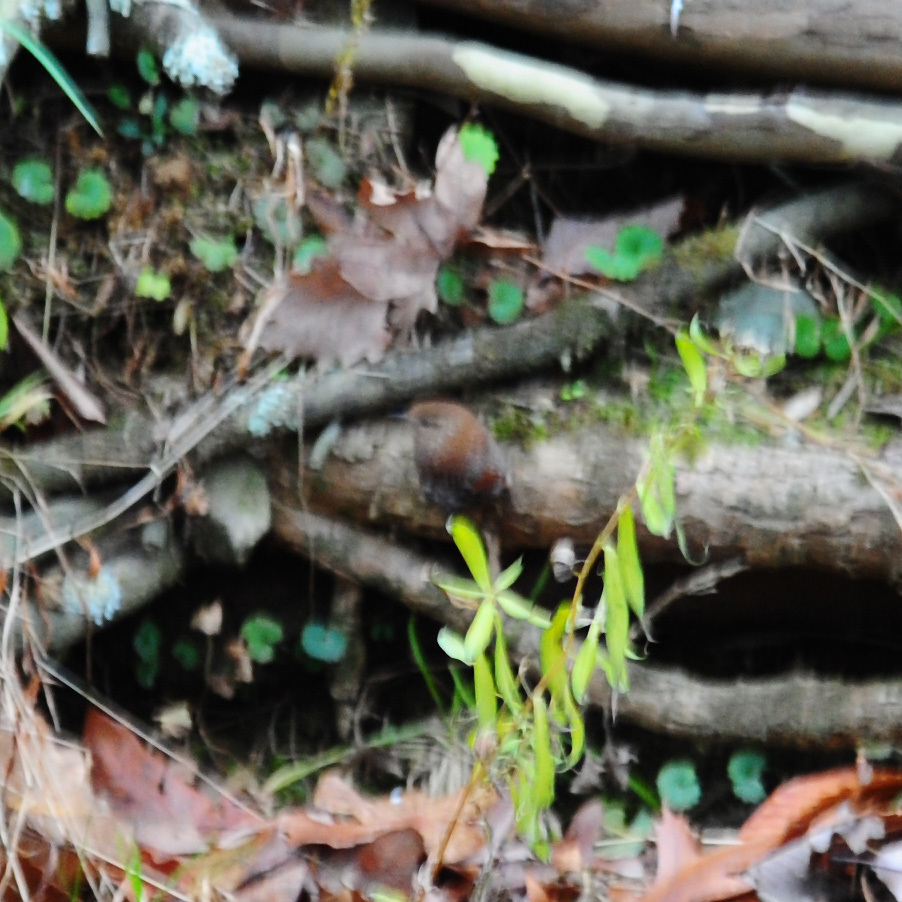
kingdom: Animalia
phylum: Chordata
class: Aves
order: Passeriformes
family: Troglodytidae
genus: Troglodytes
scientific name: Troglodytes hiemalis
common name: Winter wren
